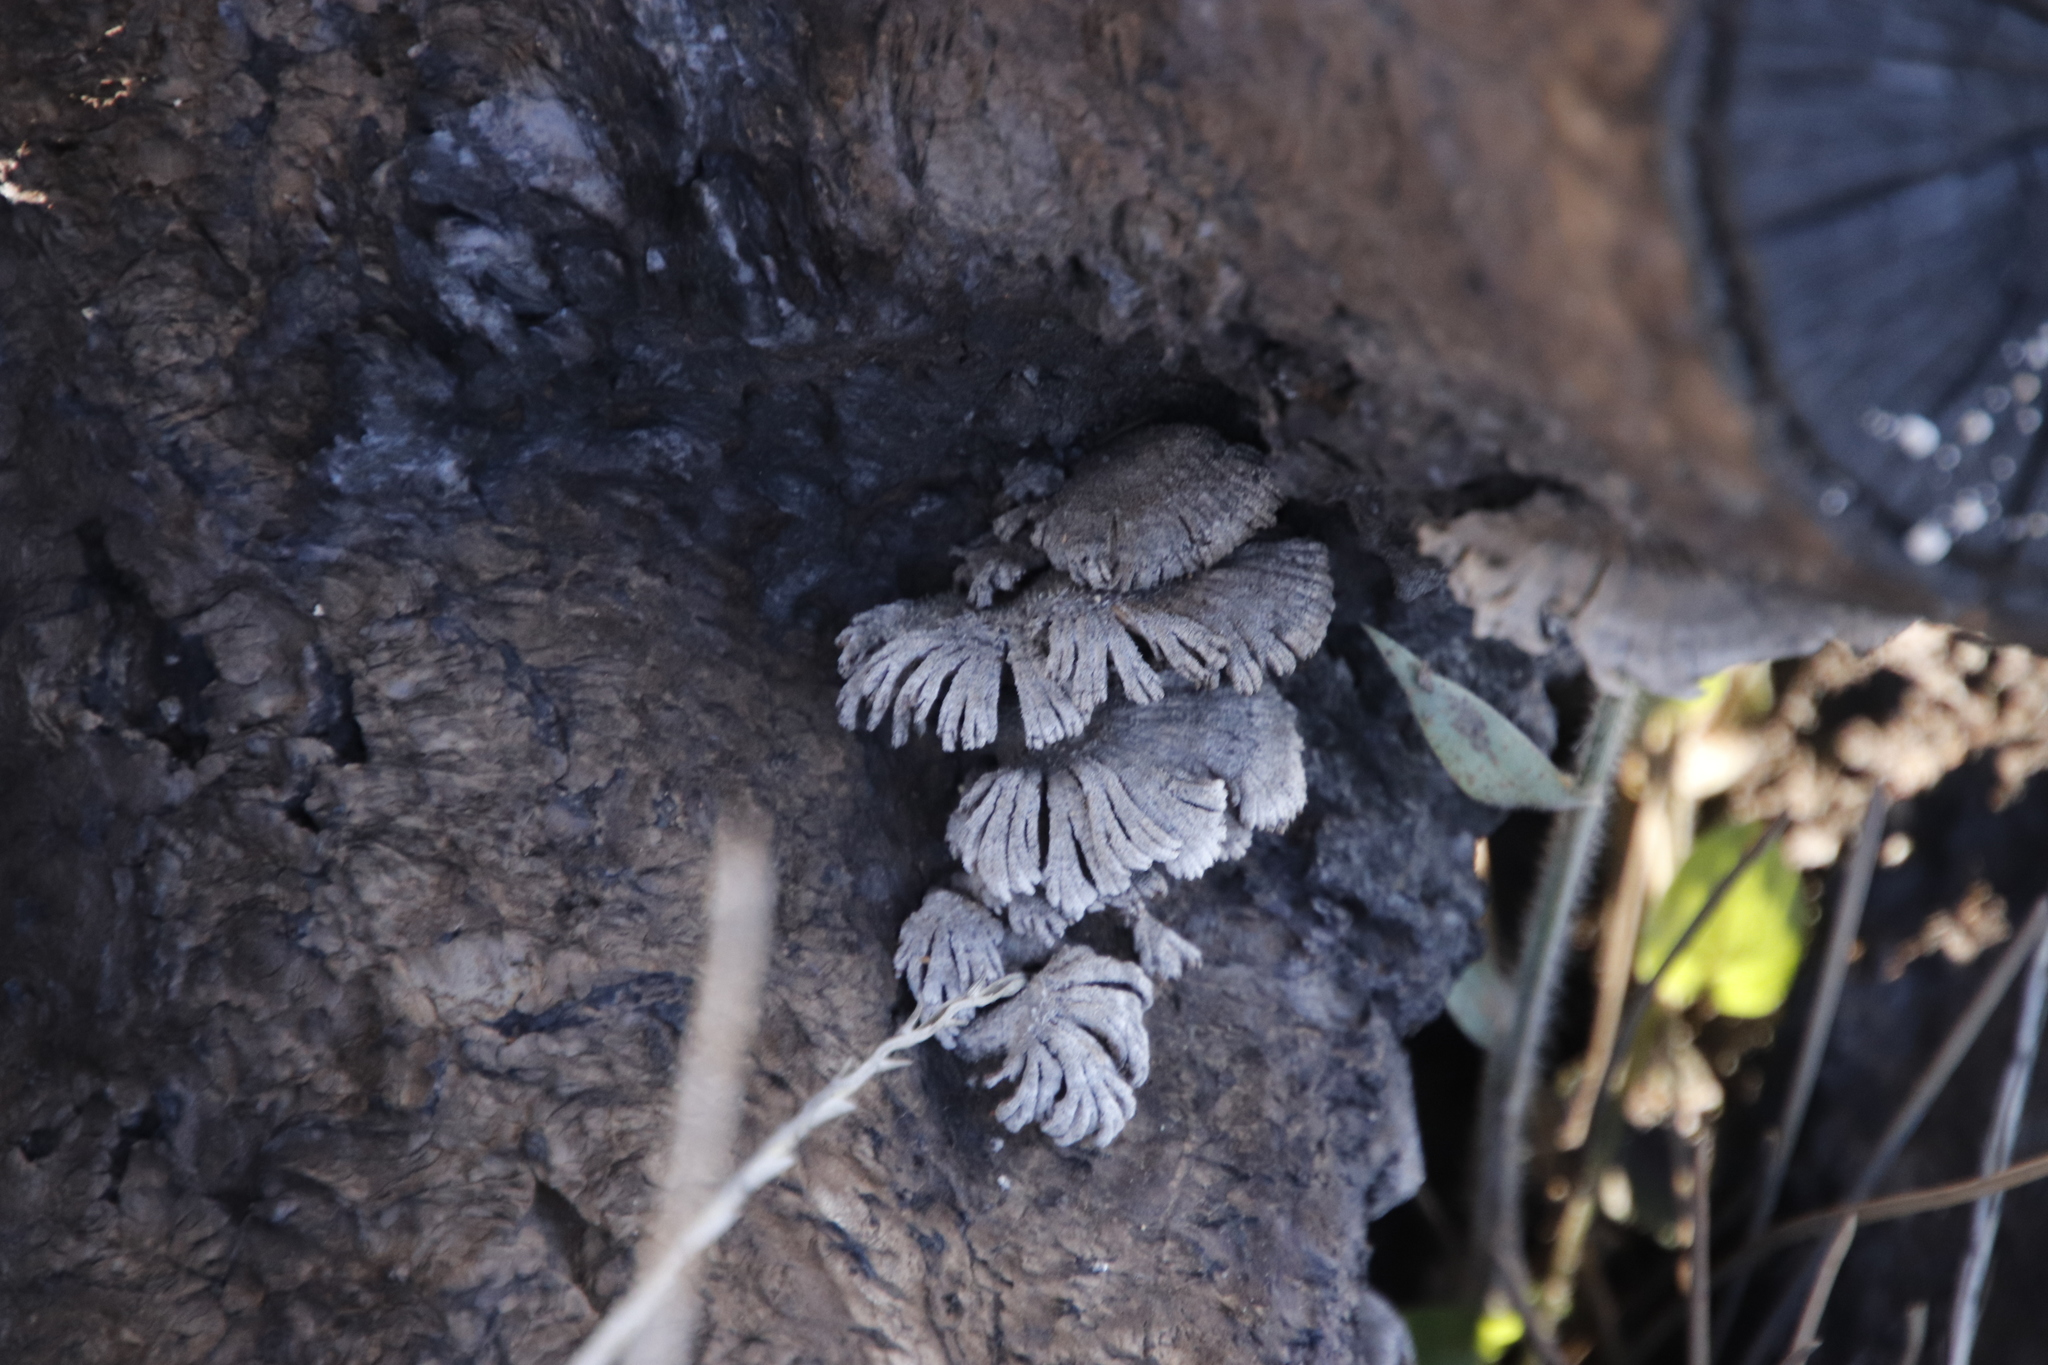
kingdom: Fungi
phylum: Basidiomycota
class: Agaricomycetes
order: Agaricales
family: Schizophyllaceae
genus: Schizophyllum
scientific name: Schizophyllum commune
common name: Common porecrust
